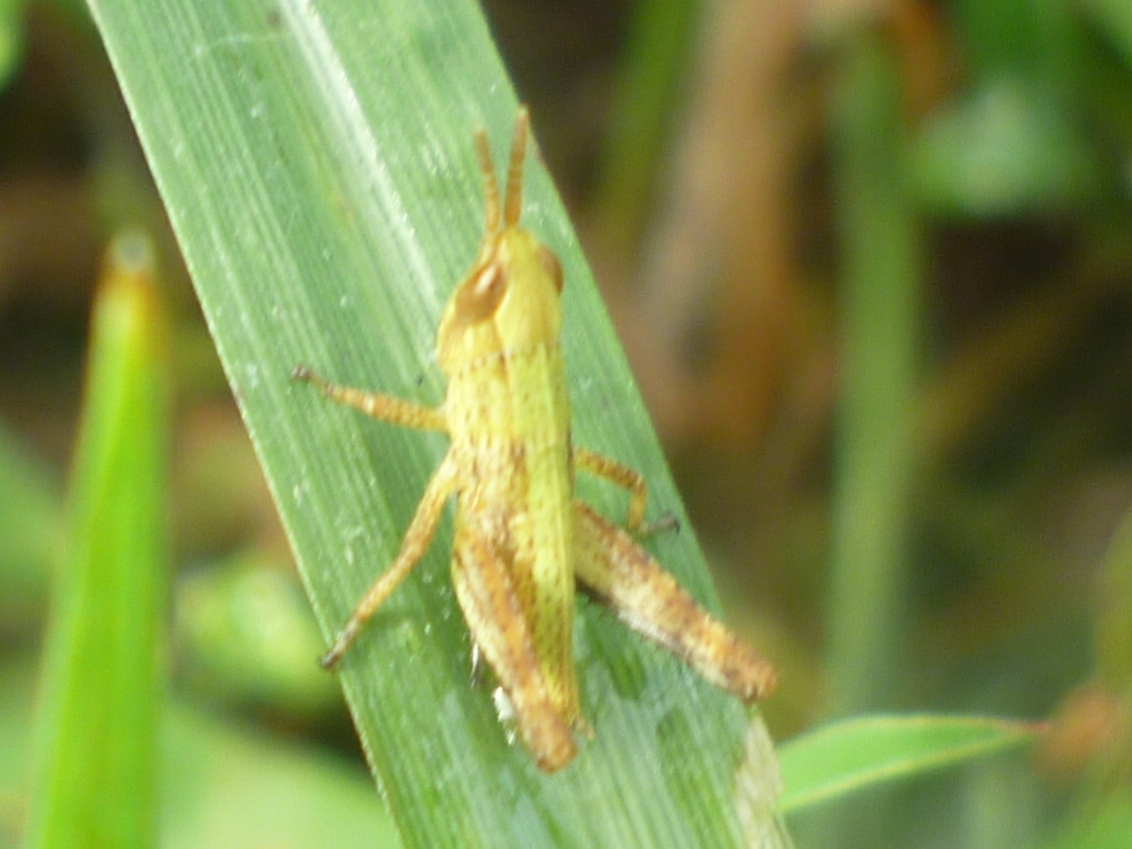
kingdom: Animalia
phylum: Arthropoda
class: Insecta
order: Orthoptera
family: Acrididae
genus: Dichromorpha
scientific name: Dichromorpha viridis
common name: Short-winged green grasshopper
